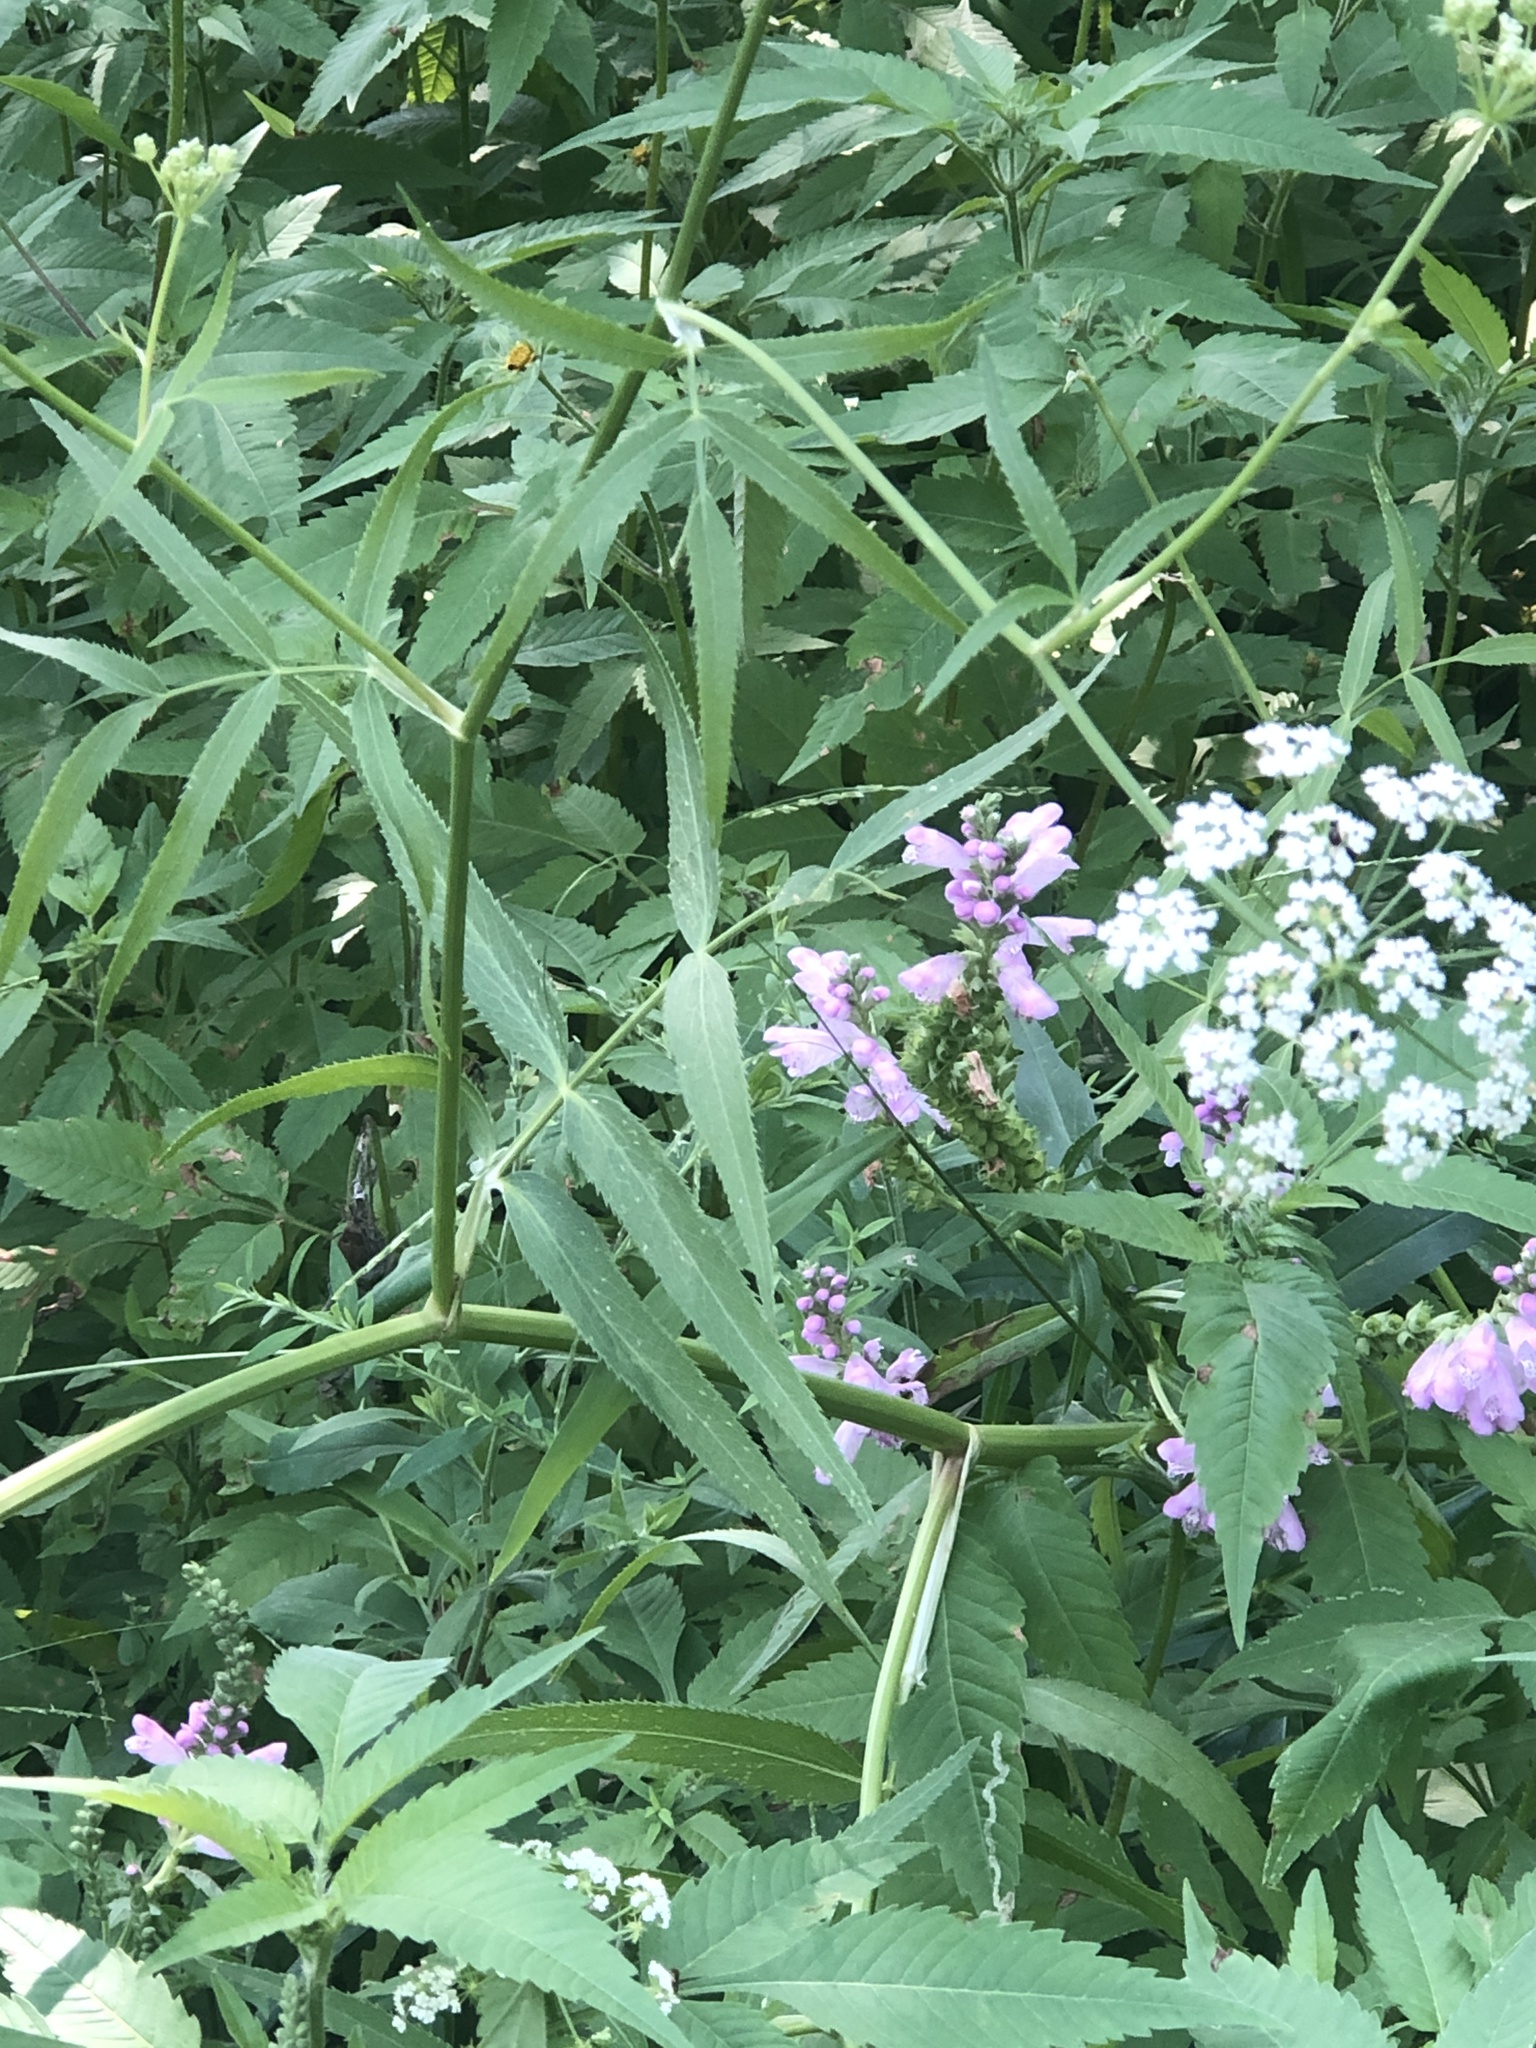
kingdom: Plantae
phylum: Tracheophyta
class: Magnoliopsida
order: Apiales
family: Apiaceae
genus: Sium
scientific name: Sium suave
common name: Hemlock water-parsnip
